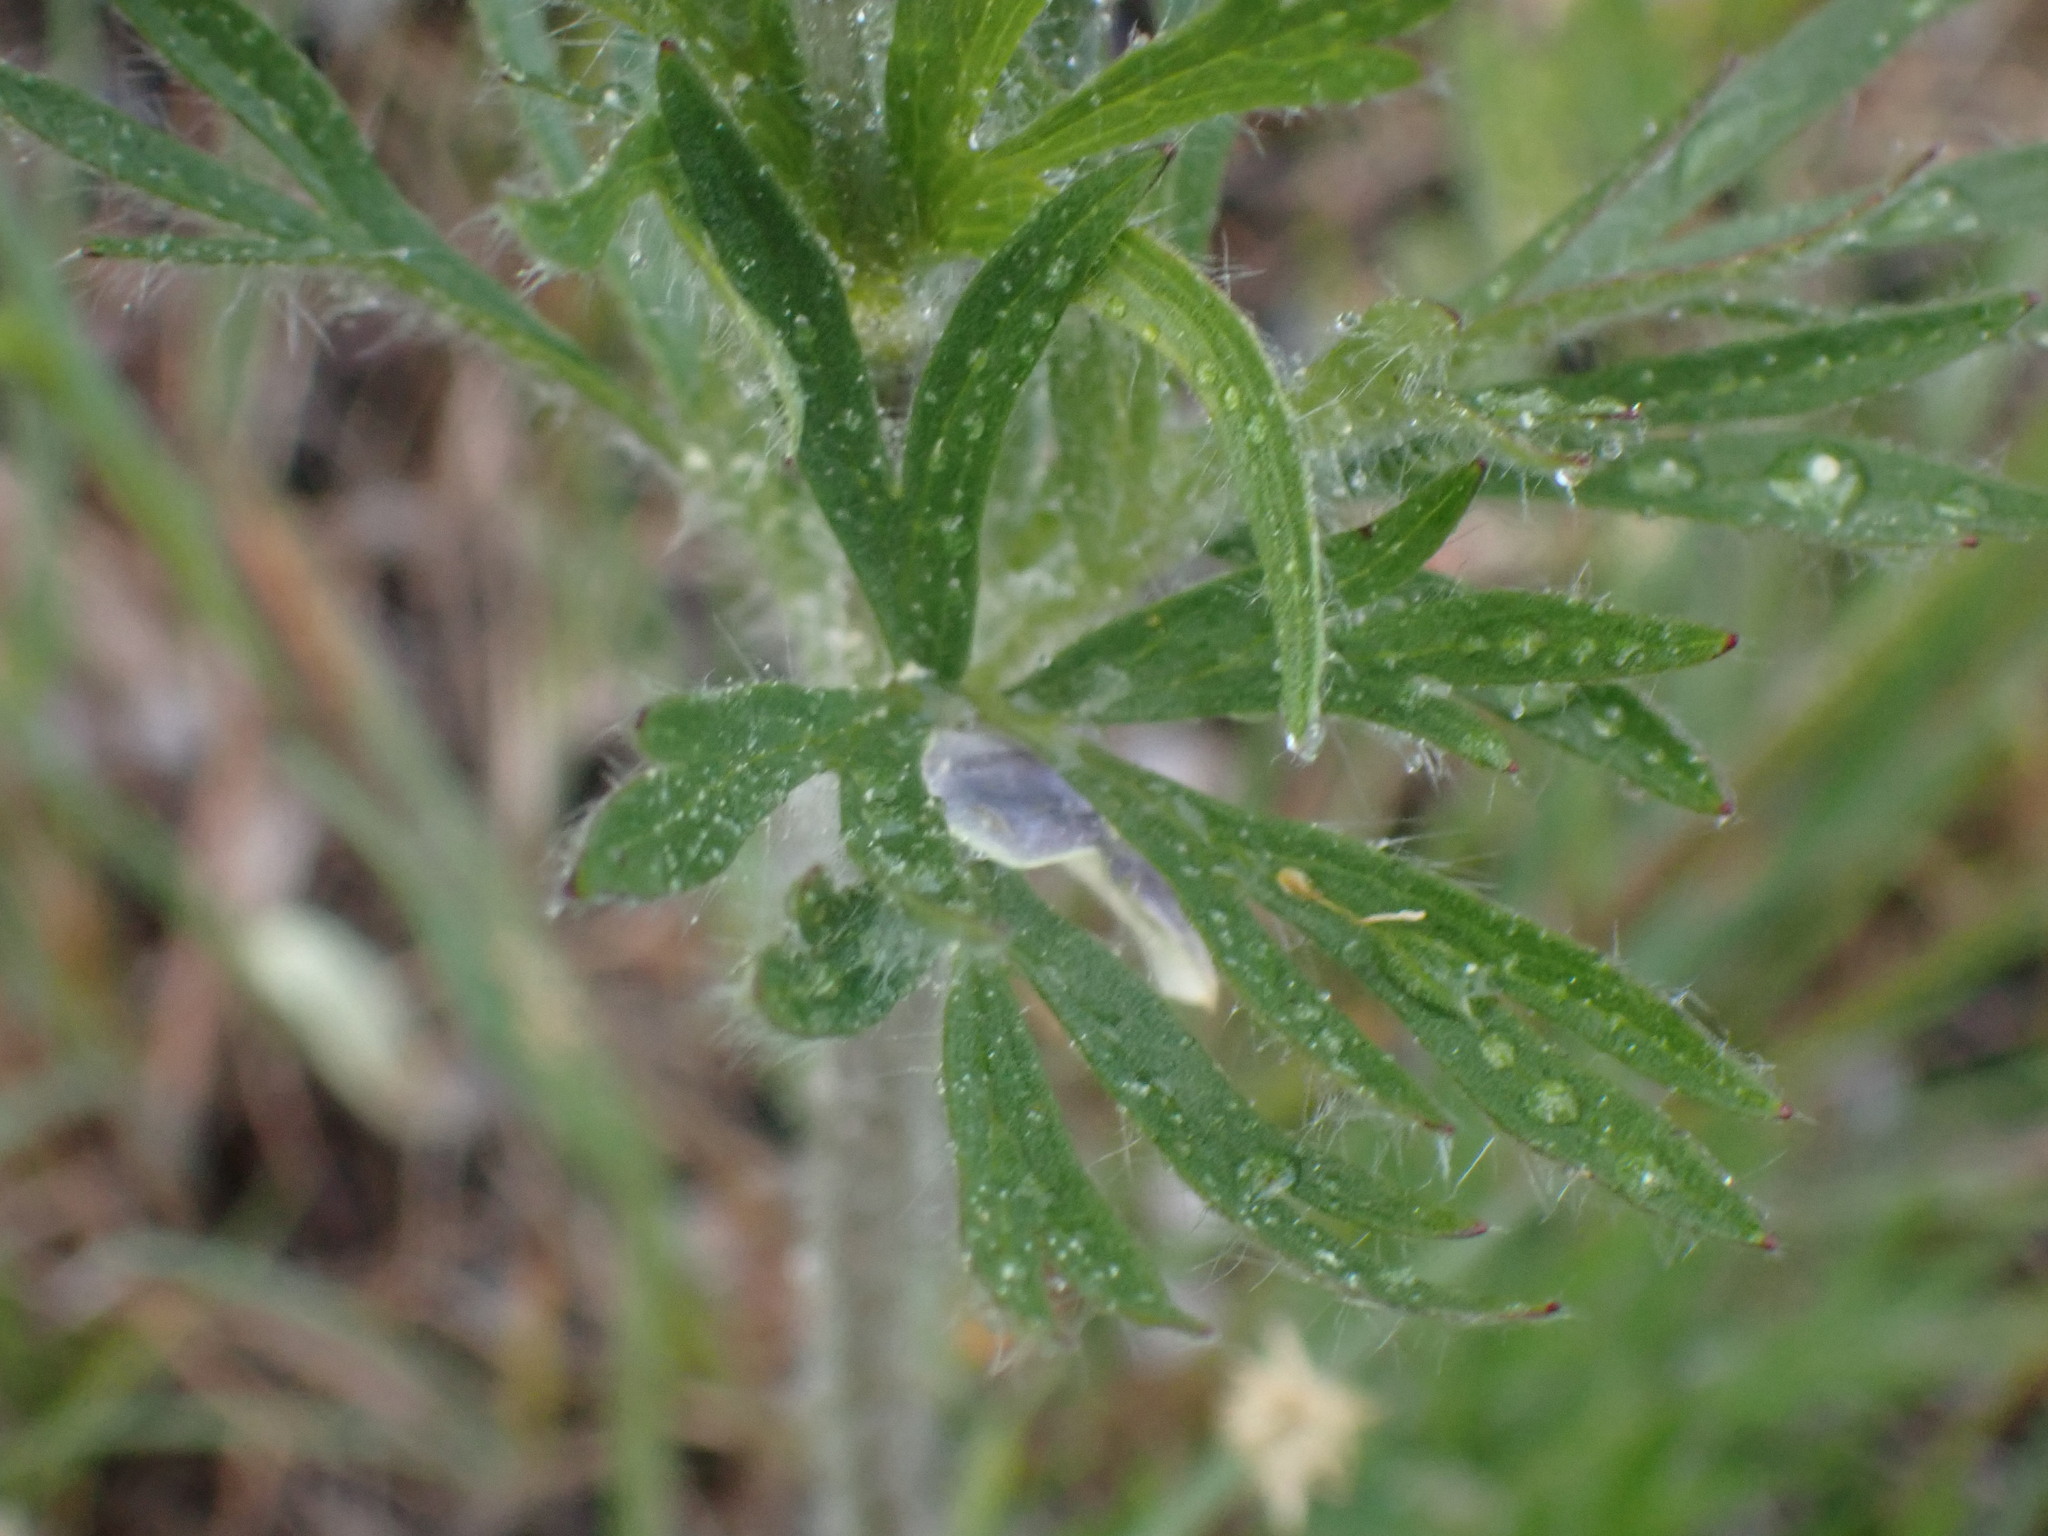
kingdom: Plantae
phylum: Tracheophyta
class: Magnoliopsida
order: Ranunculales
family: Ranunculaceae
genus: Anemone
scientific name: Anemone multifida
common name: Bird's-foot anemone
